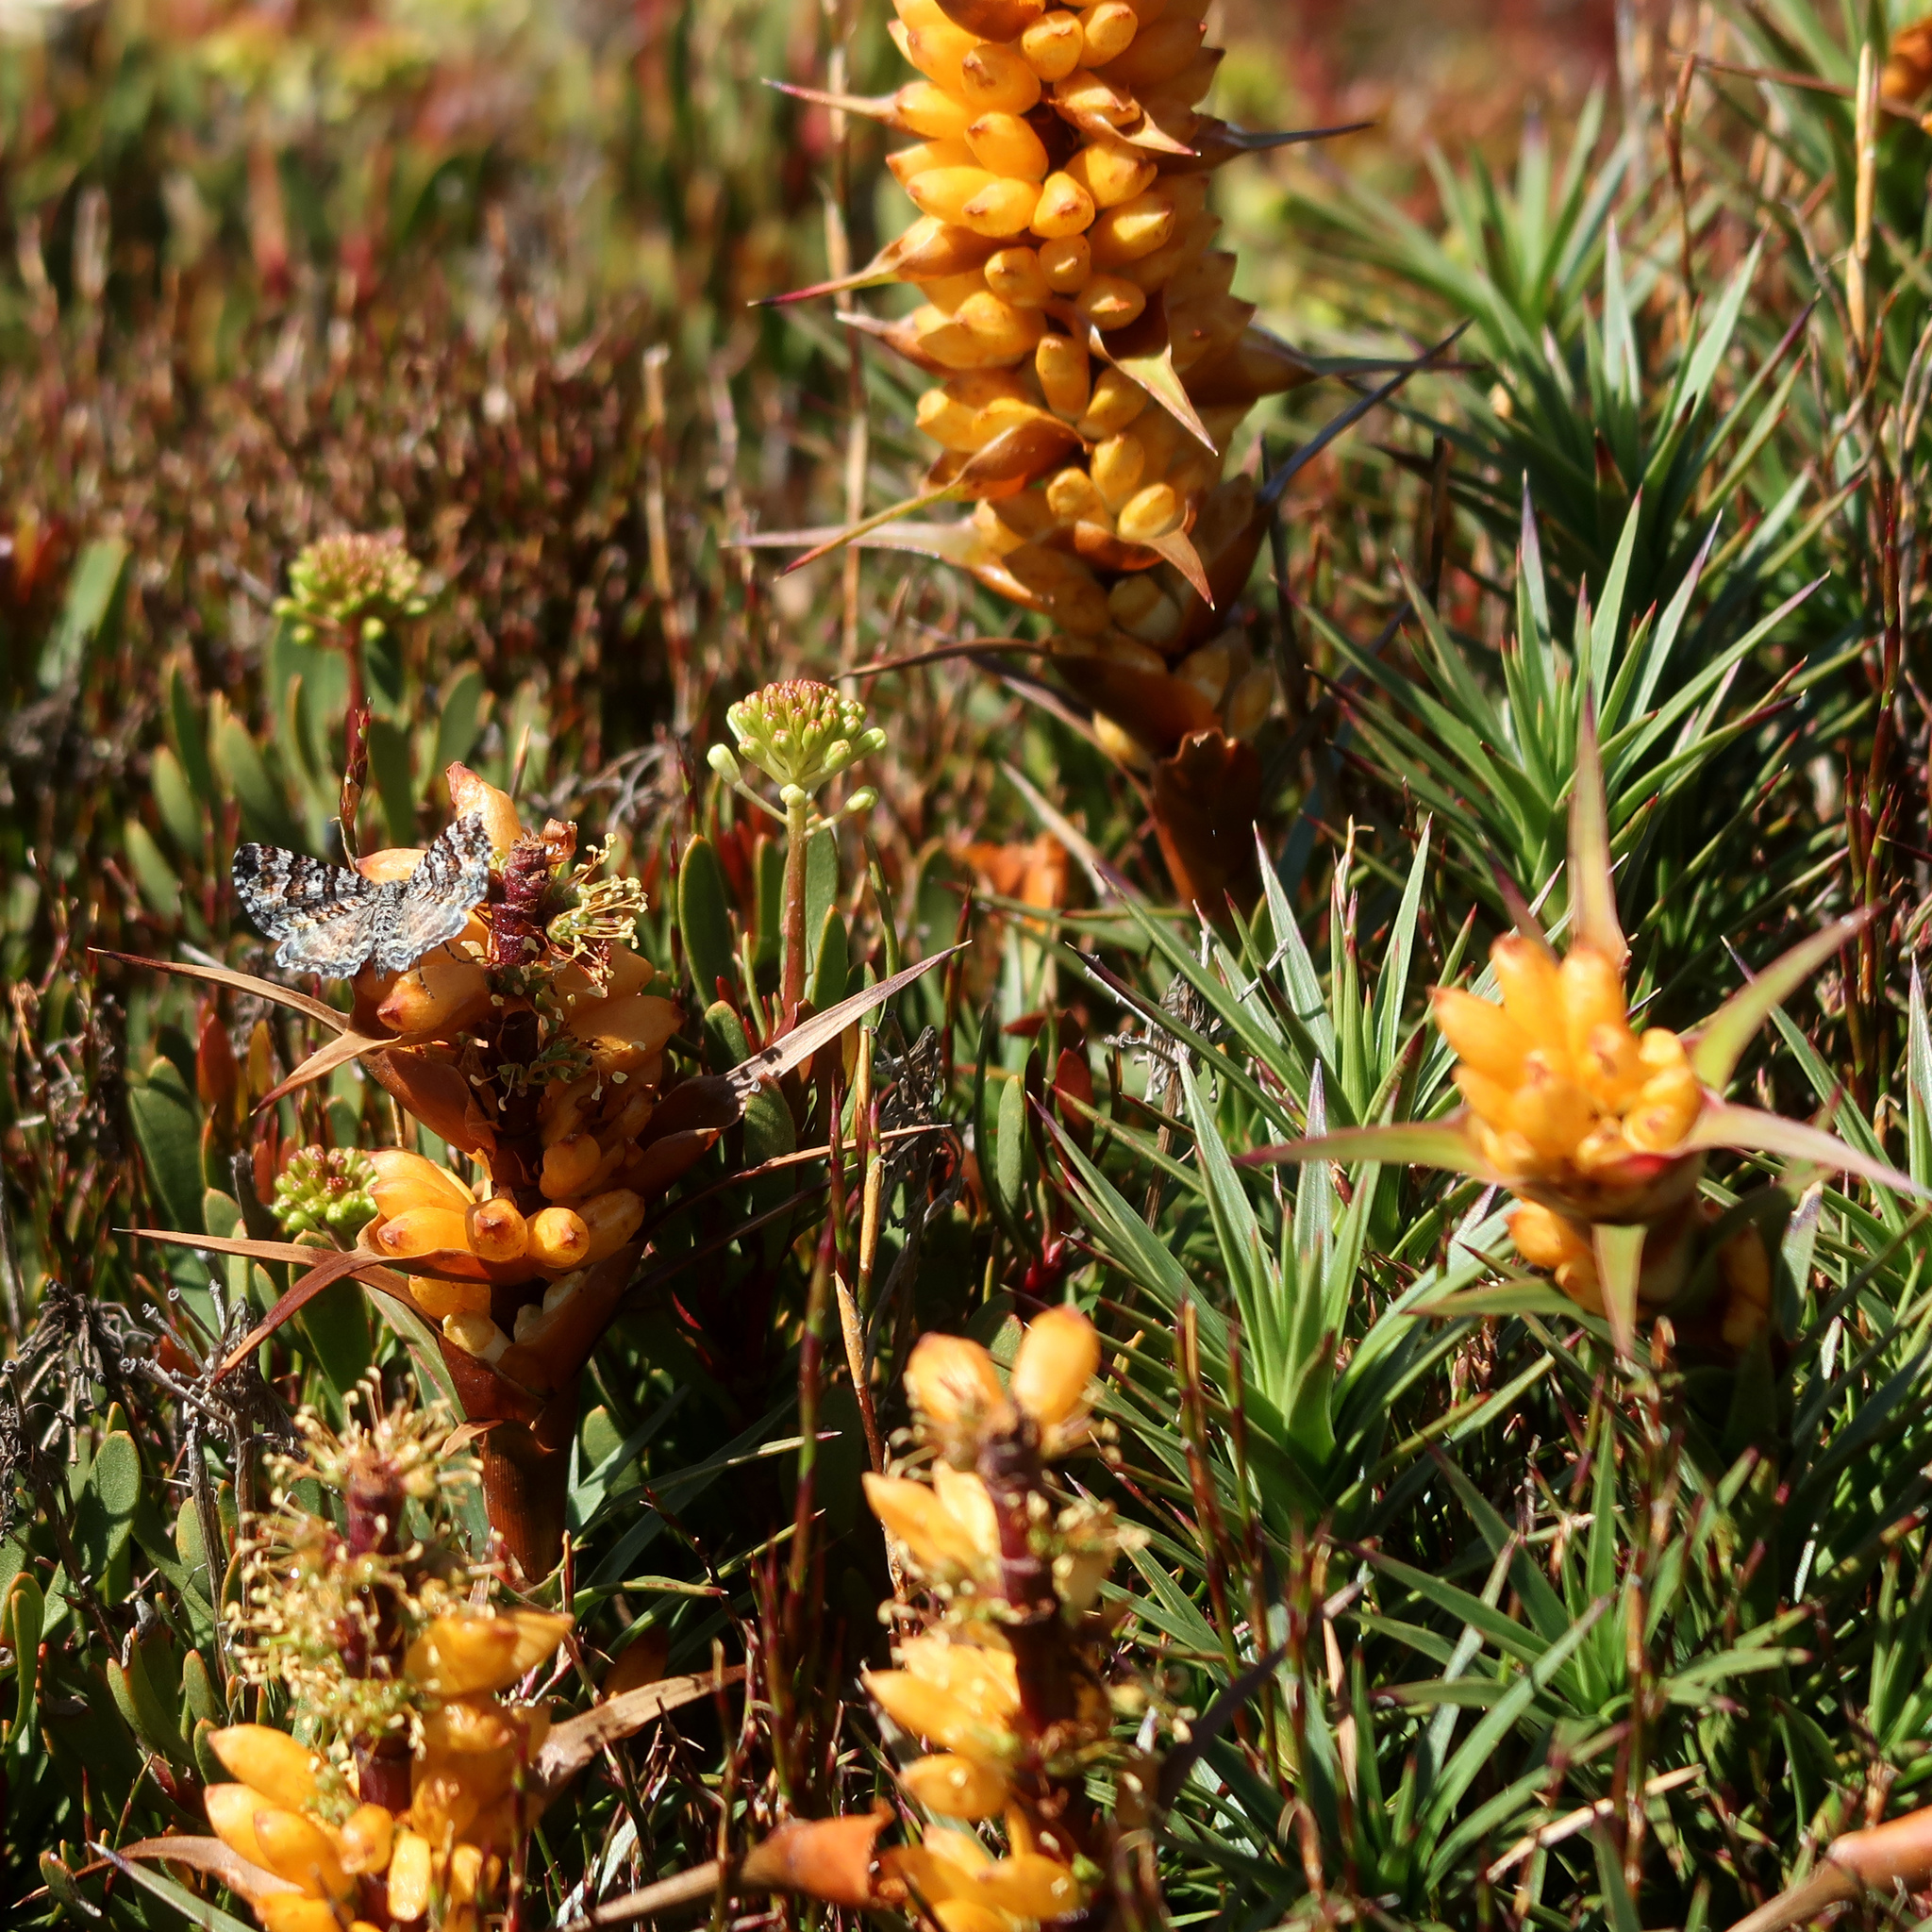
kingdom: Plantae
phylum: Tracheophyta
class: Magnoliopsida
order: Ericales
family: Ericaceae
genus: Dracophyllum
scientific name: Dracophyllum persistentifolium
